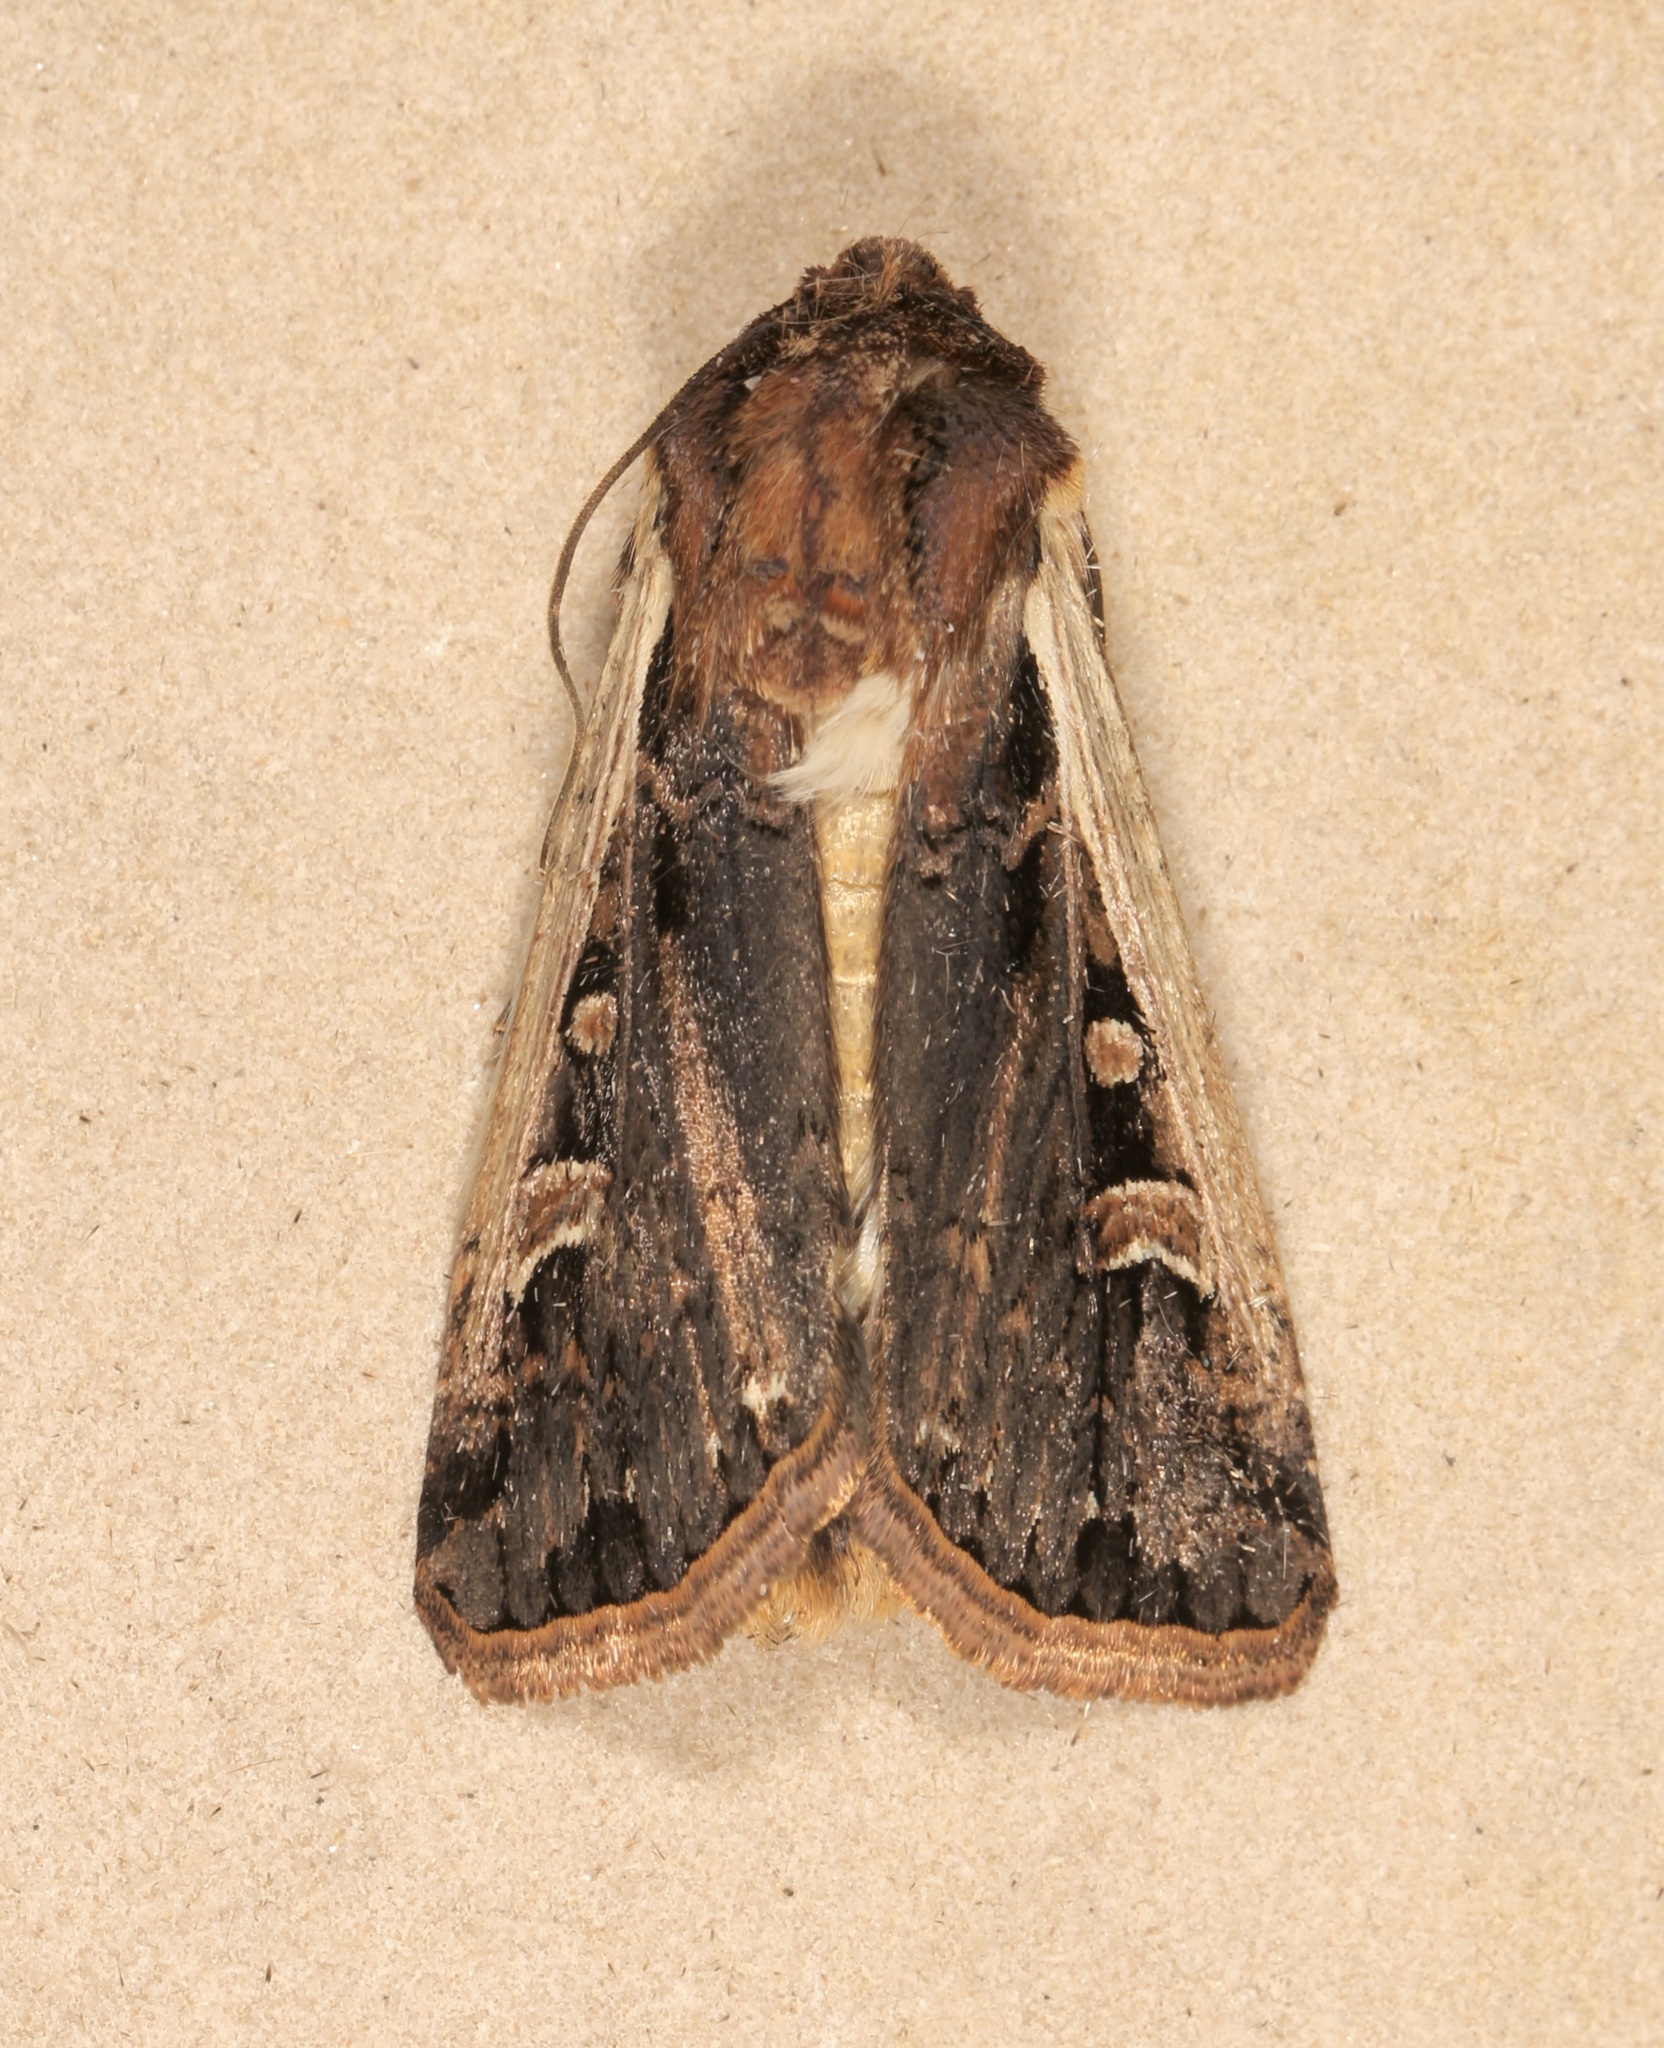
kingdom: Animalia
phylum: Arthropoda
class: Insecta
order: Lepidoptera
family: Noctuidae
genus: Striacosta
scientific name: Striacosta albicosta
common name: Western bean cutworm moth
